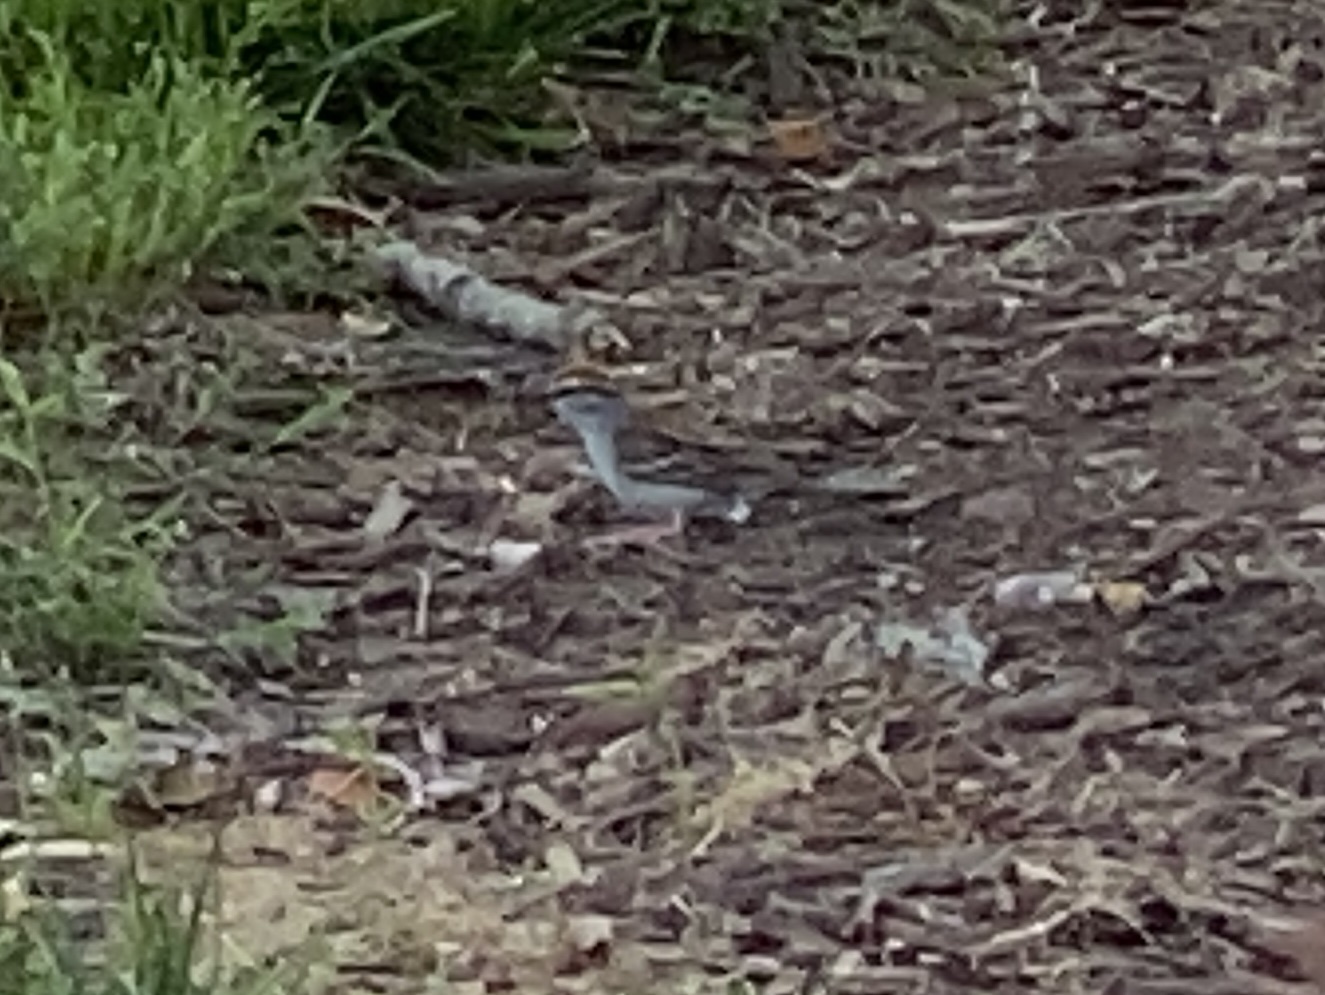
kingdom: Animalia
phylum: Chordata
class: Aves
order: Passeriformes
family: Passerellidae
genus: Spizella
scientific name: Spizella passerina
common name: Chipping sparrow
